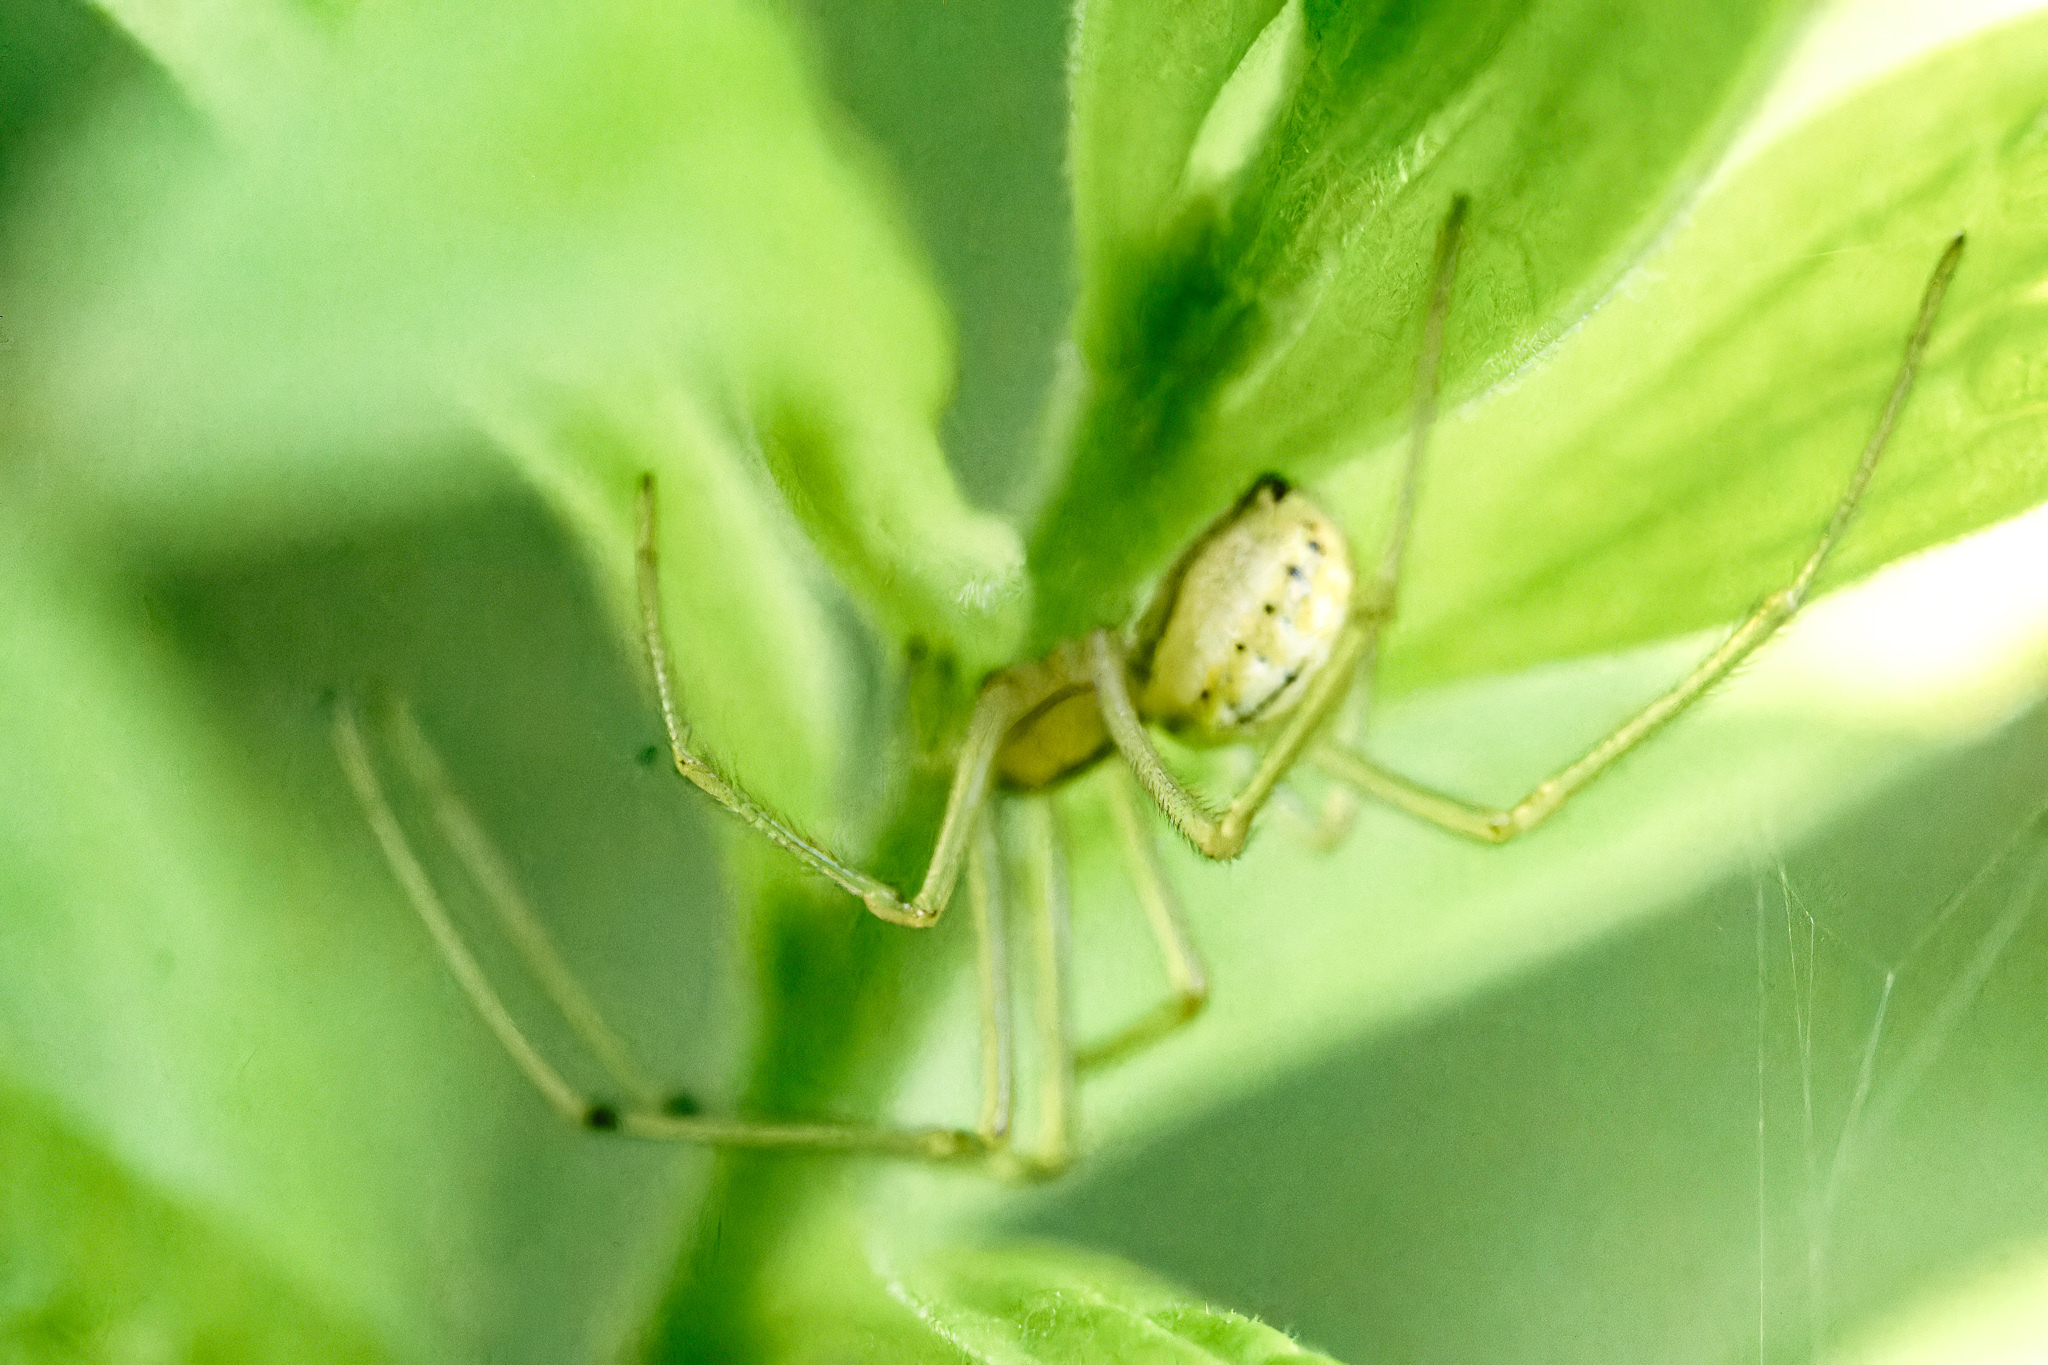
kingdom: Animalia
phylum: Arthropoda
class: Arachnida
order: Araneae
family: Theridiidae
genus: Enoplognatha
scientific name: Enoplognatha ovata
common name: Common candy-striped spider
